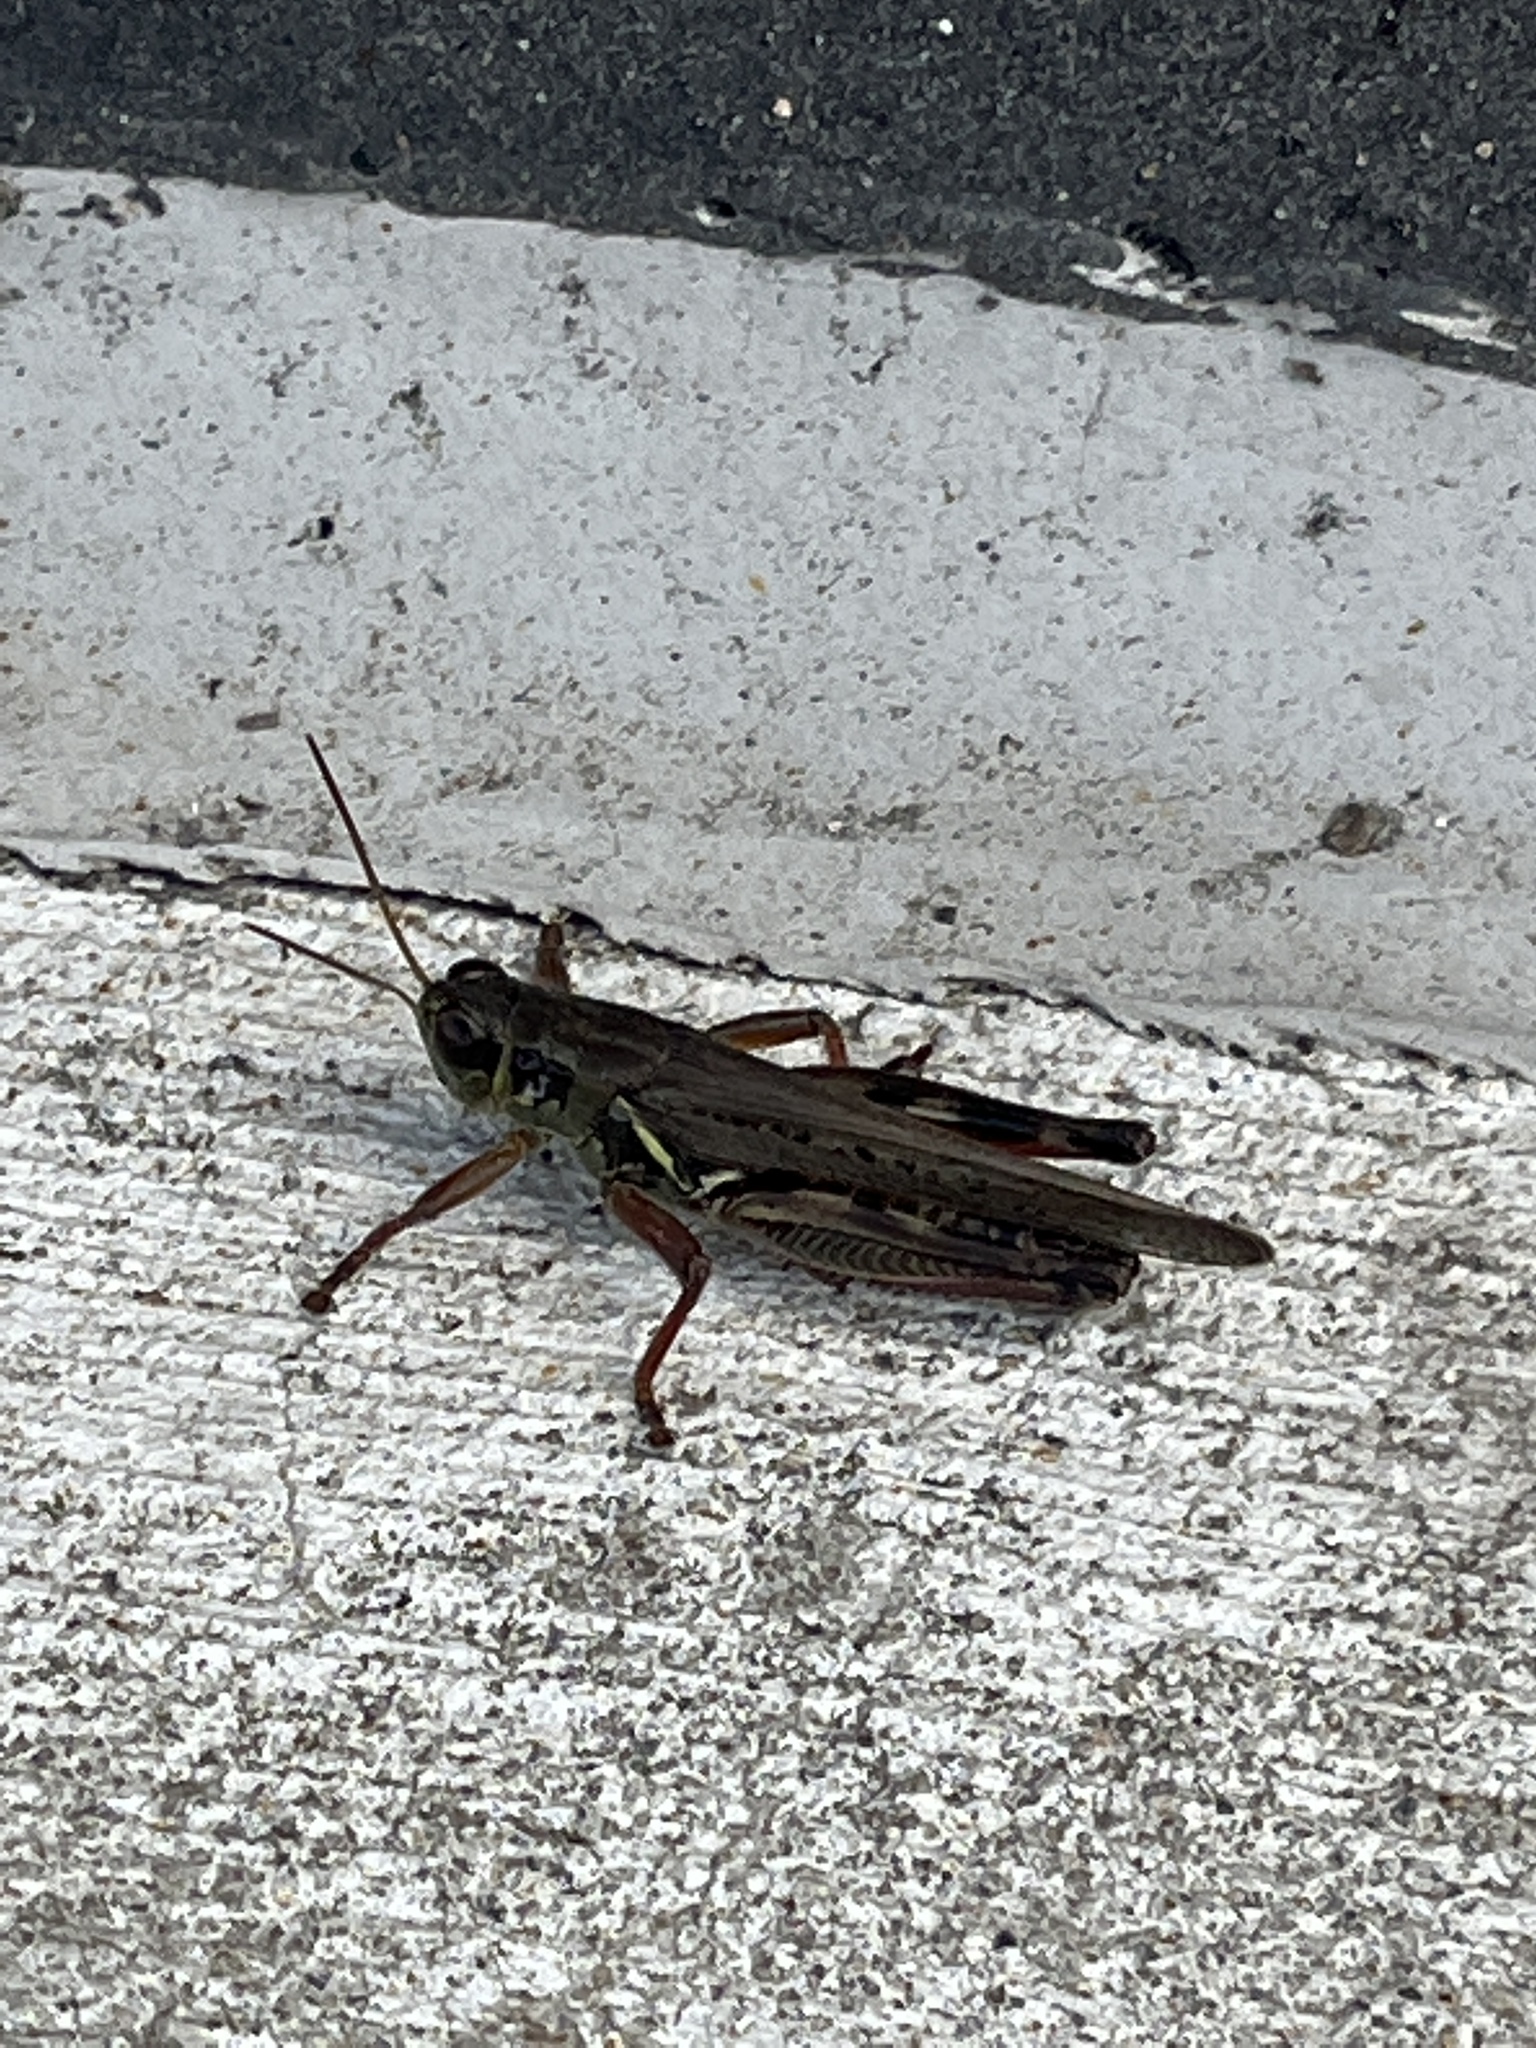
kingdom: Animalia
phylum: Arthropoda
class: Insecta
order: Orthoptera
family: Acrididae
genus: Melanoplus
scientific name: Melanoplus femurrubrum
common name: Red-legged grasshopper
